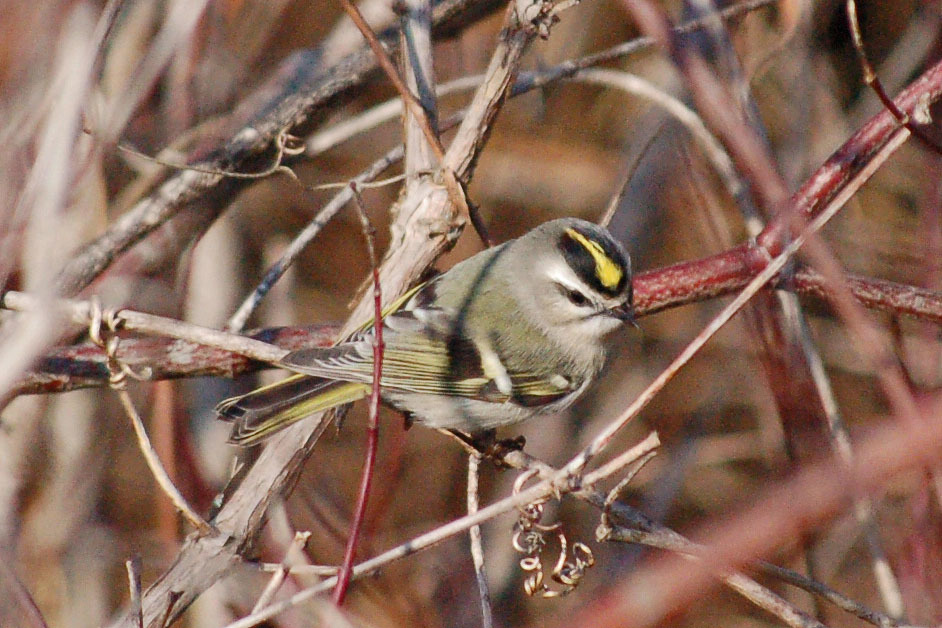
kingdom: Animalia
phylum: Chordata
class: Aves
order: Passeriformes
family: Regulidae
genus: Regulus
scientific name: Regulus satrapa
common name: Golden-crowned kinglet
